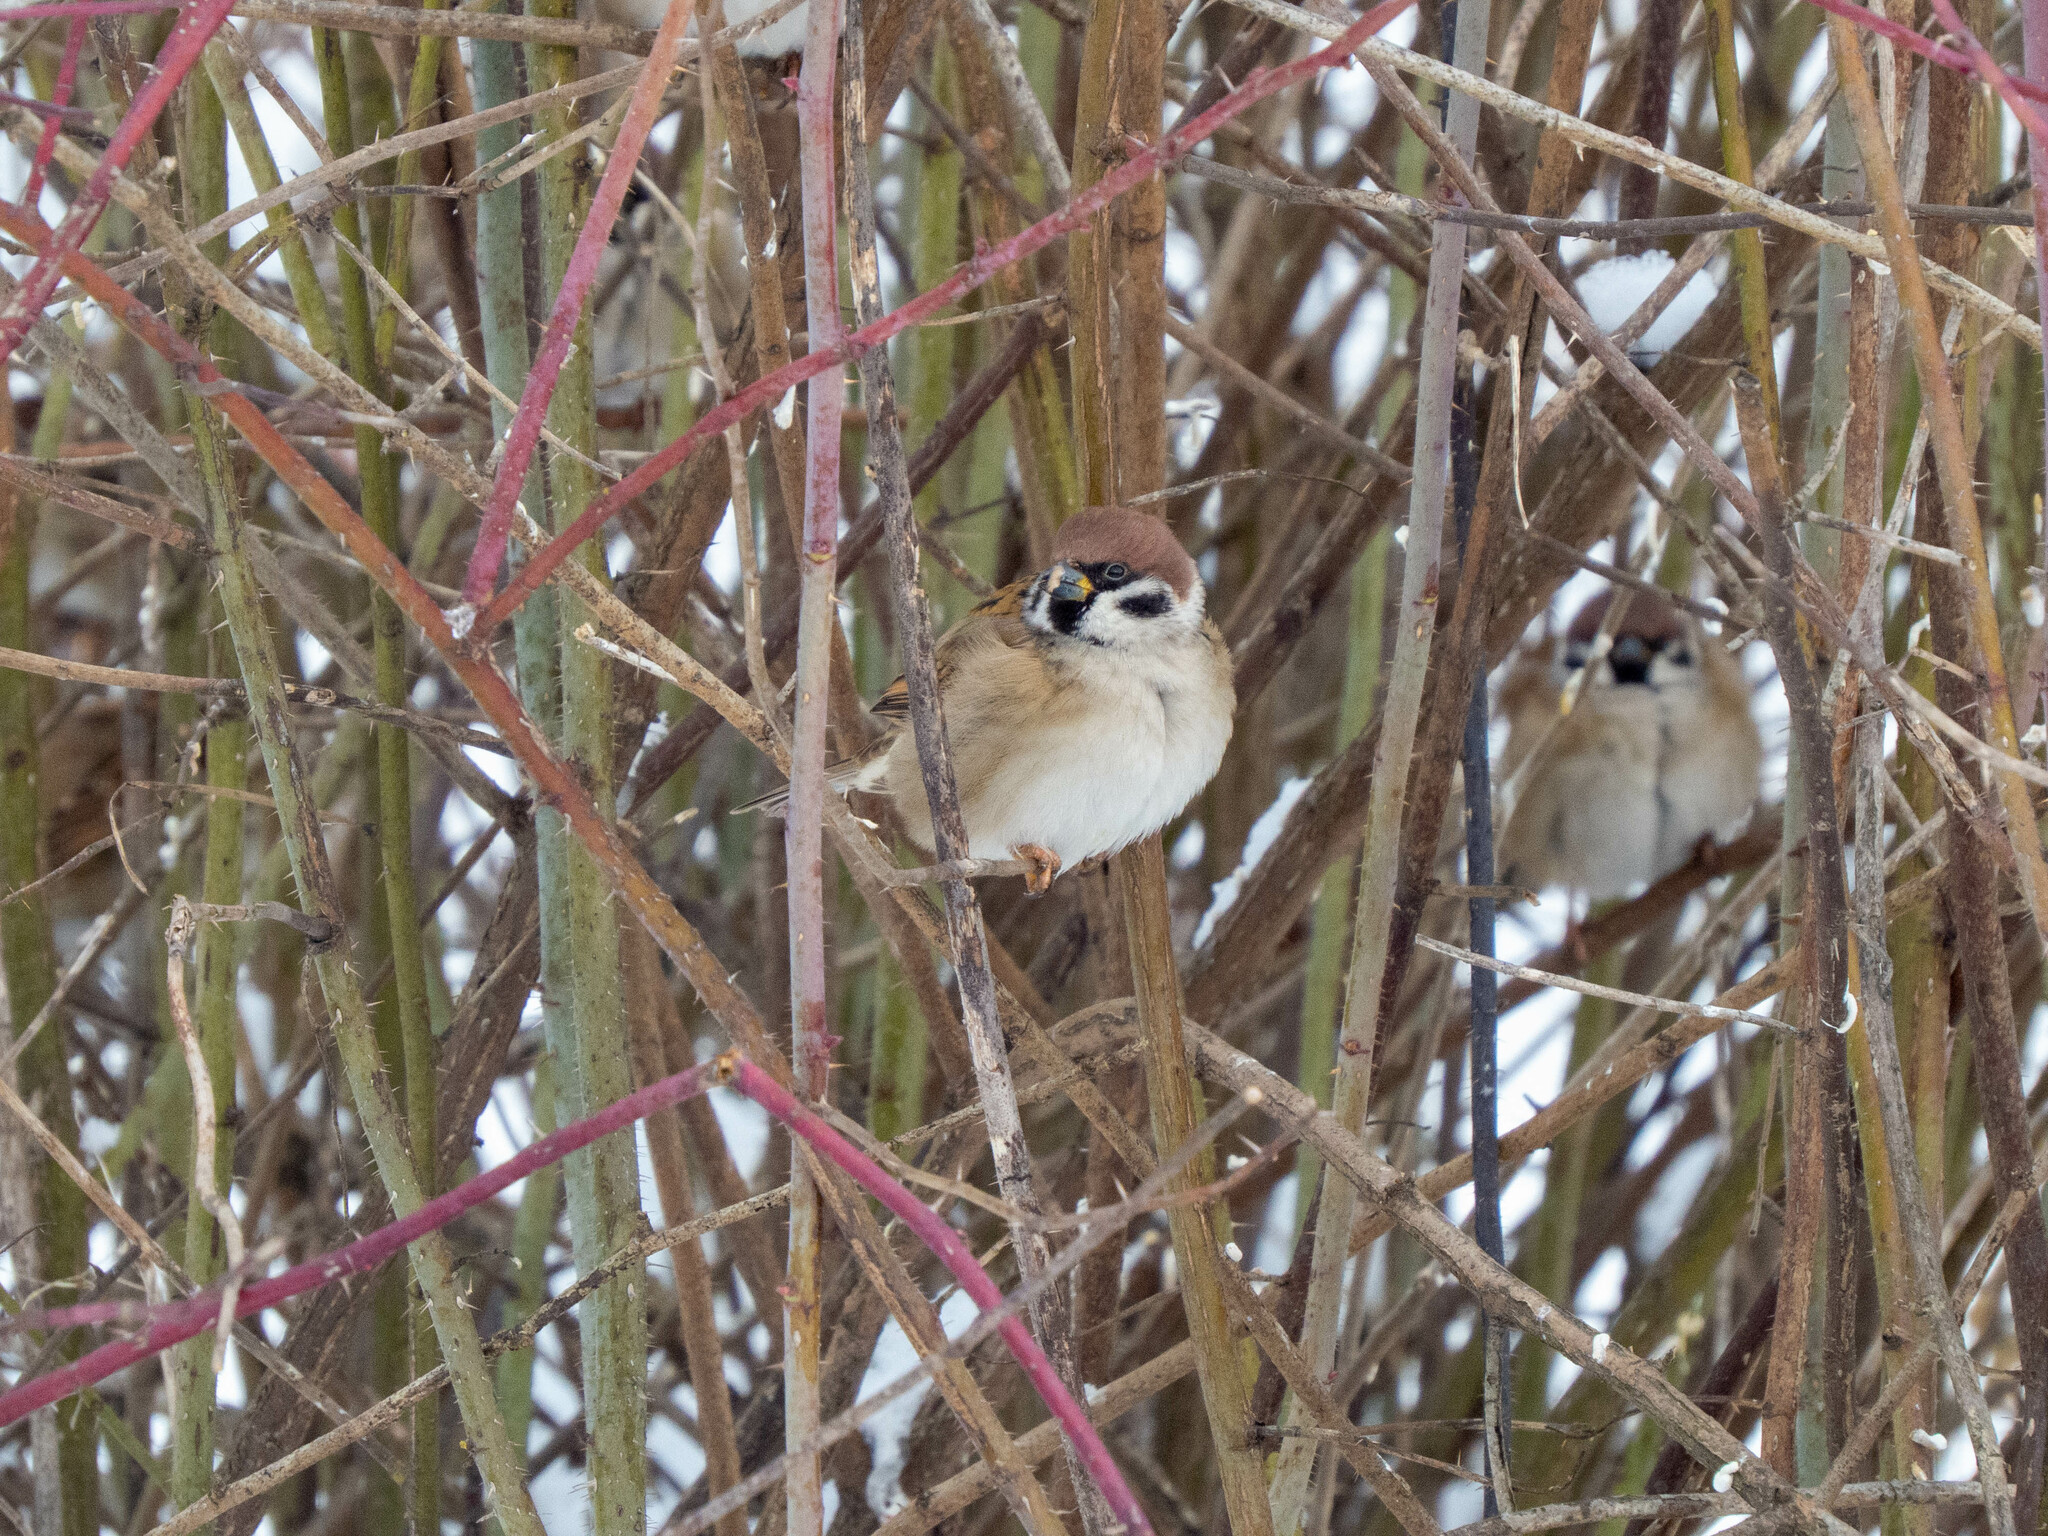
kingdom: Animalia
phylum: Chordata
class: Aves
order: Passeriformes
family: Passeridae
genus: Passer
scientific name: Passer montanus
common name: Eurasian tree sparrow
